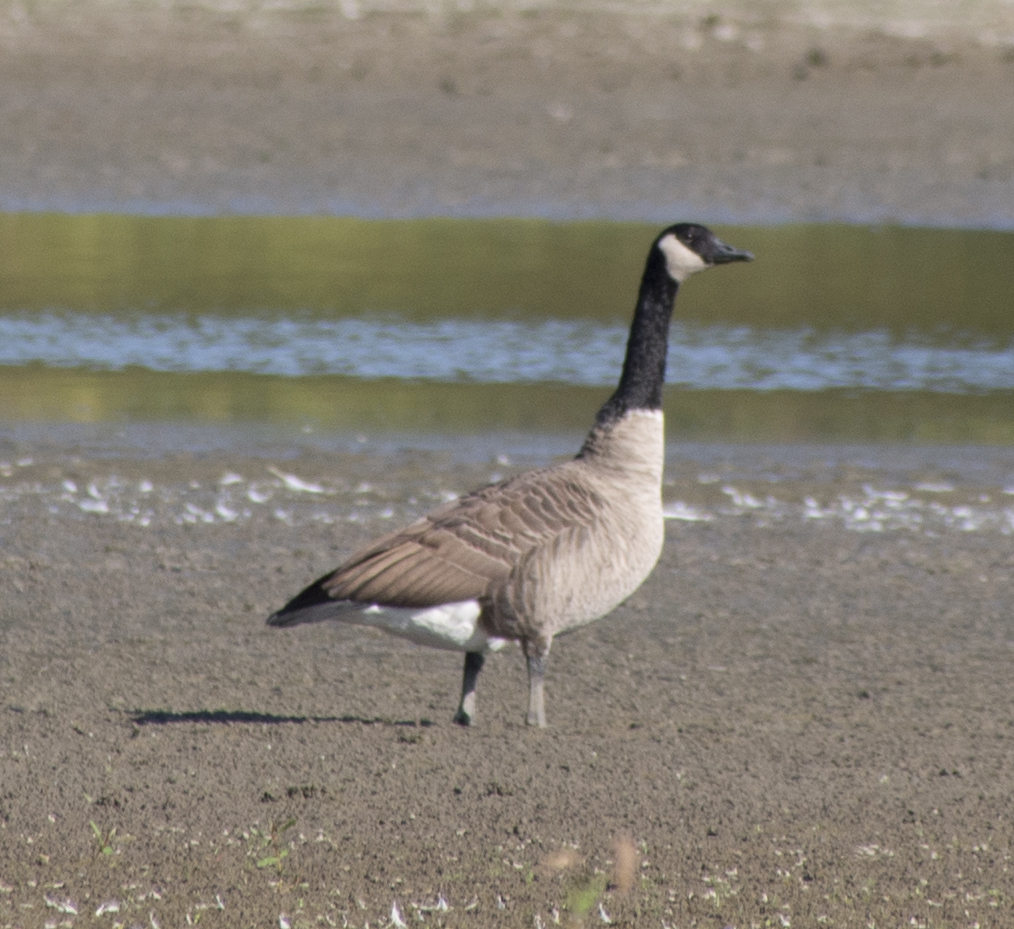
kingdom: Animalia
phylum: Chordata
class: Aves
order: Anseriformes
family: Anatidae
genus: Branta
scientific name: Branta canadensis
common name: Canada goose
